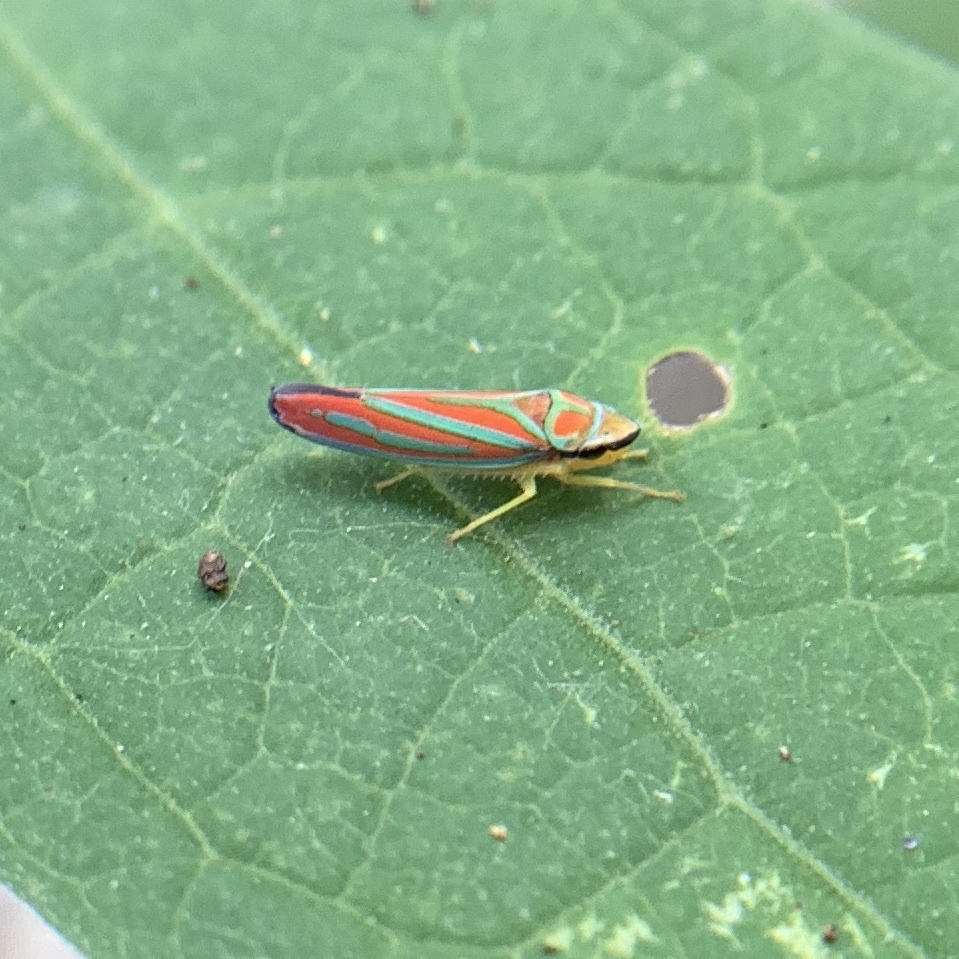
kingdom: Animalia
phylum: Arthropoda
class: Insecta
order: Hemiptera
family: Cicadellidae
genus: Graphocephala
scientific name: Graphocephala coccinea
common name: Candy-striped leafhopper
